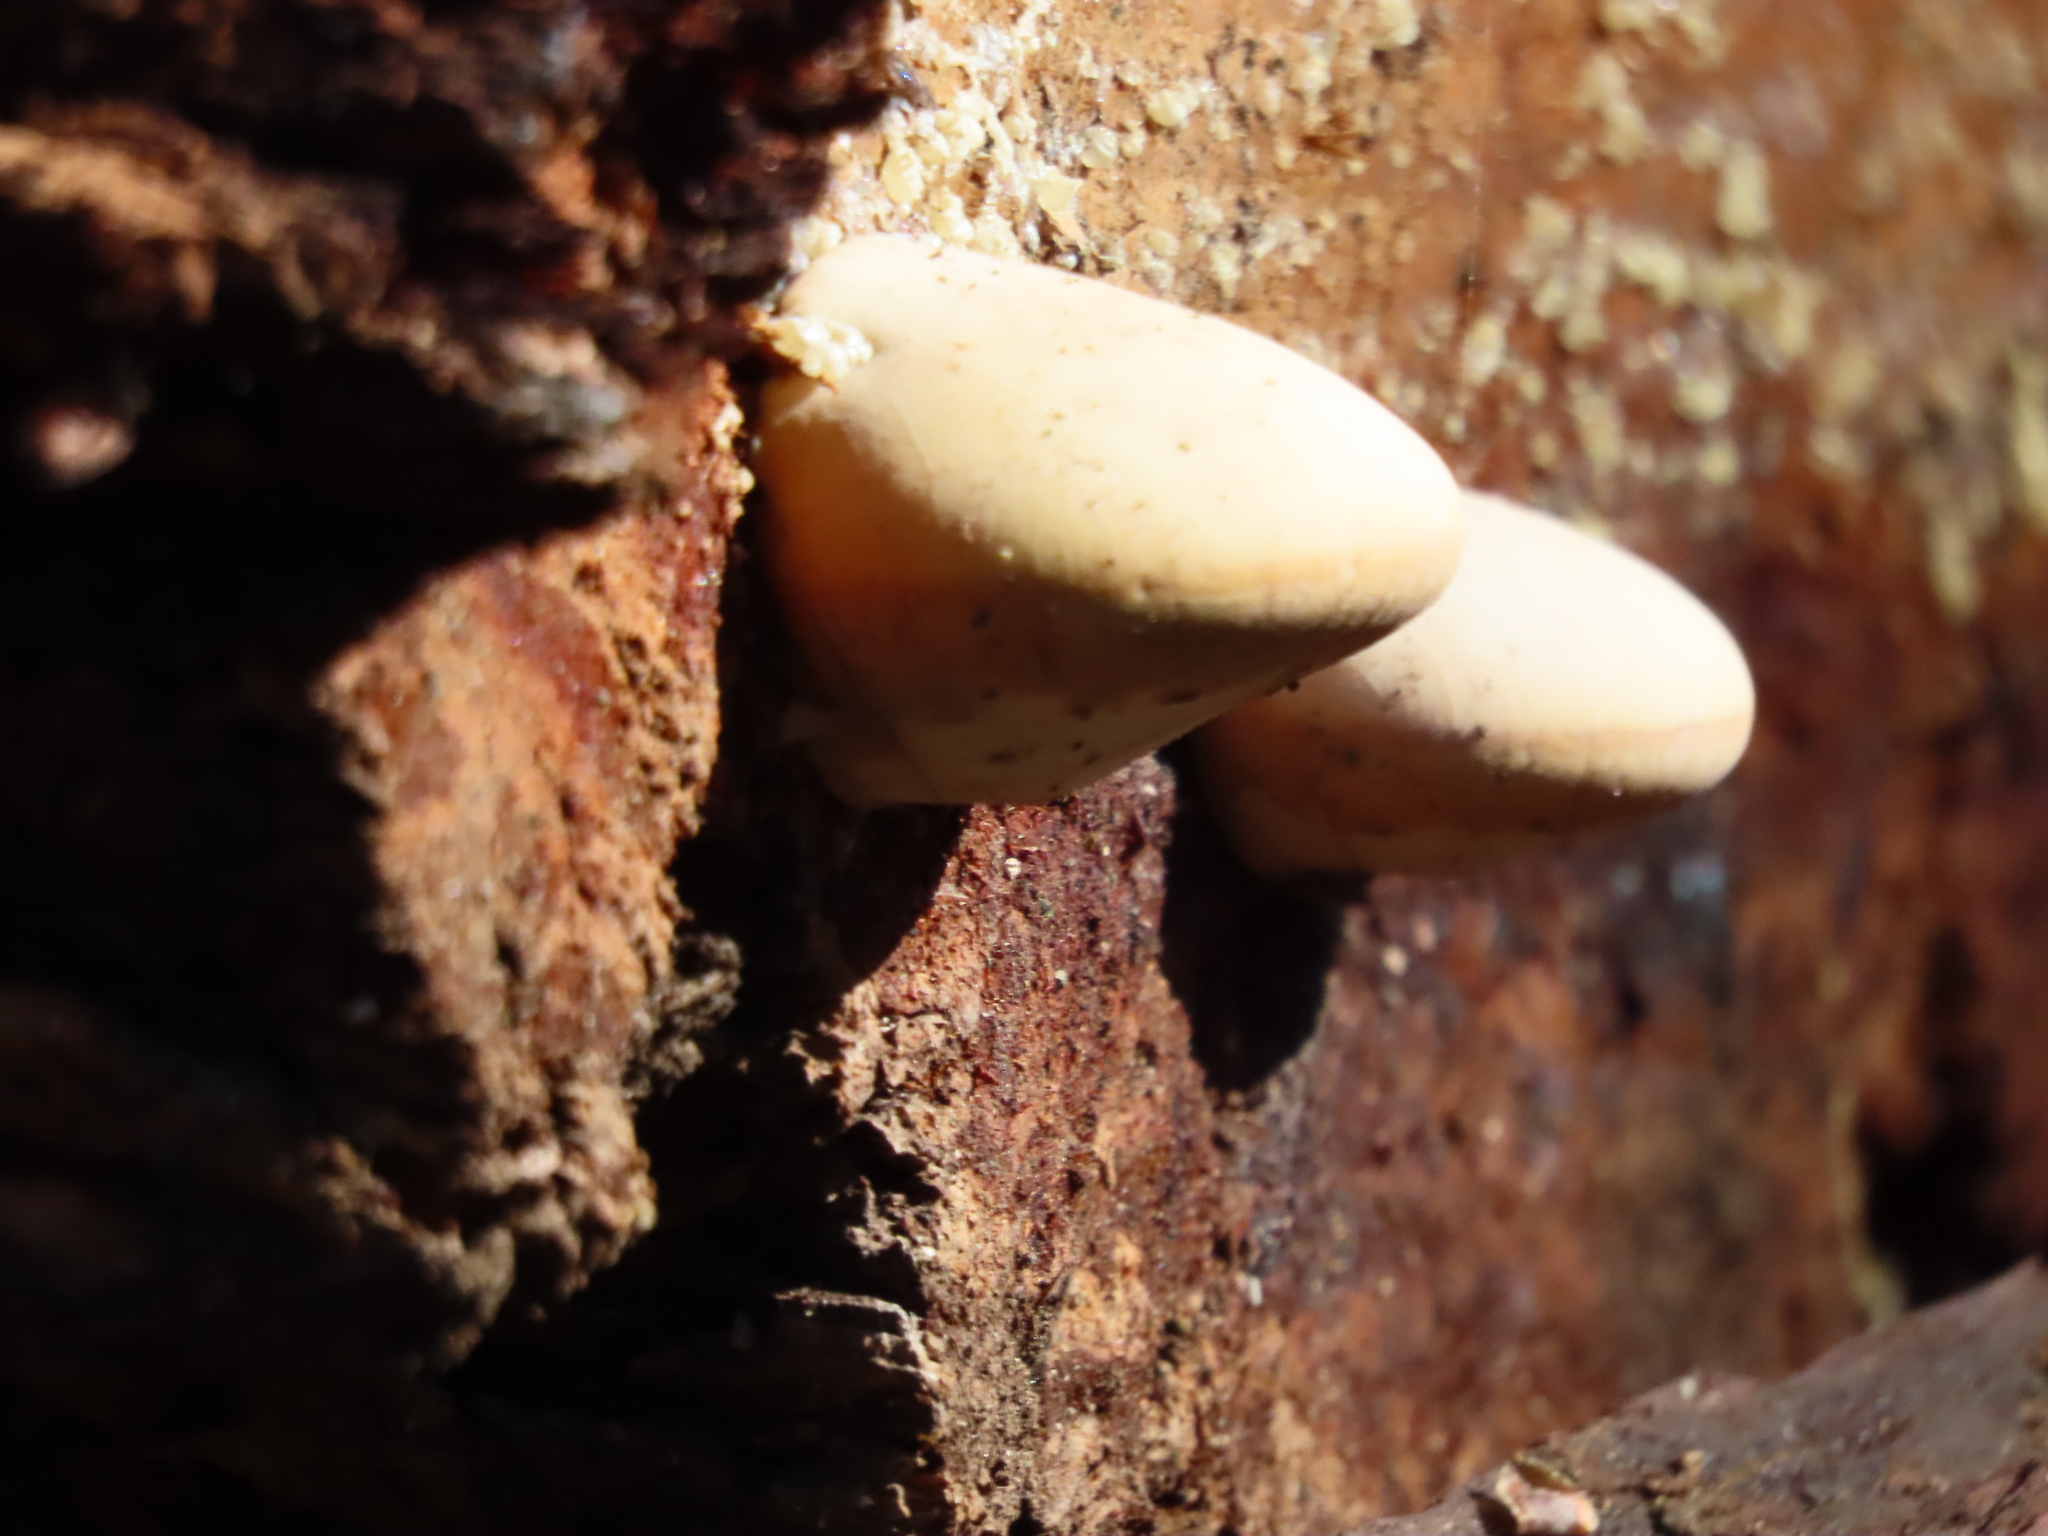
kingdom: Fungi
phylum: Basidiomycota
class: Agaricomycetes
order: Polyporales
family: Polyporaceae
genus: Cryptoporus
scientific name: Cryptoporus volvatus
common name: Veiled polypore
